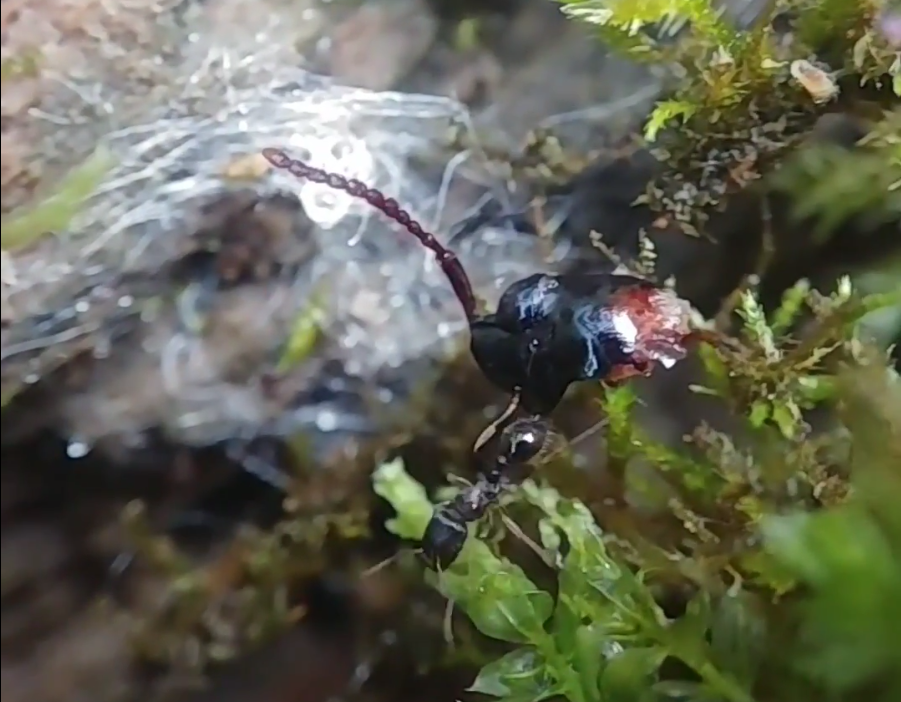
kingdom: Animalia
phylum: Arthropoda
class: Insecta
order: Hymenoptera
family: Formicidae
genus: Tetramorium
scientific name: Tetramorium immigrans
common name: Pavement ant
